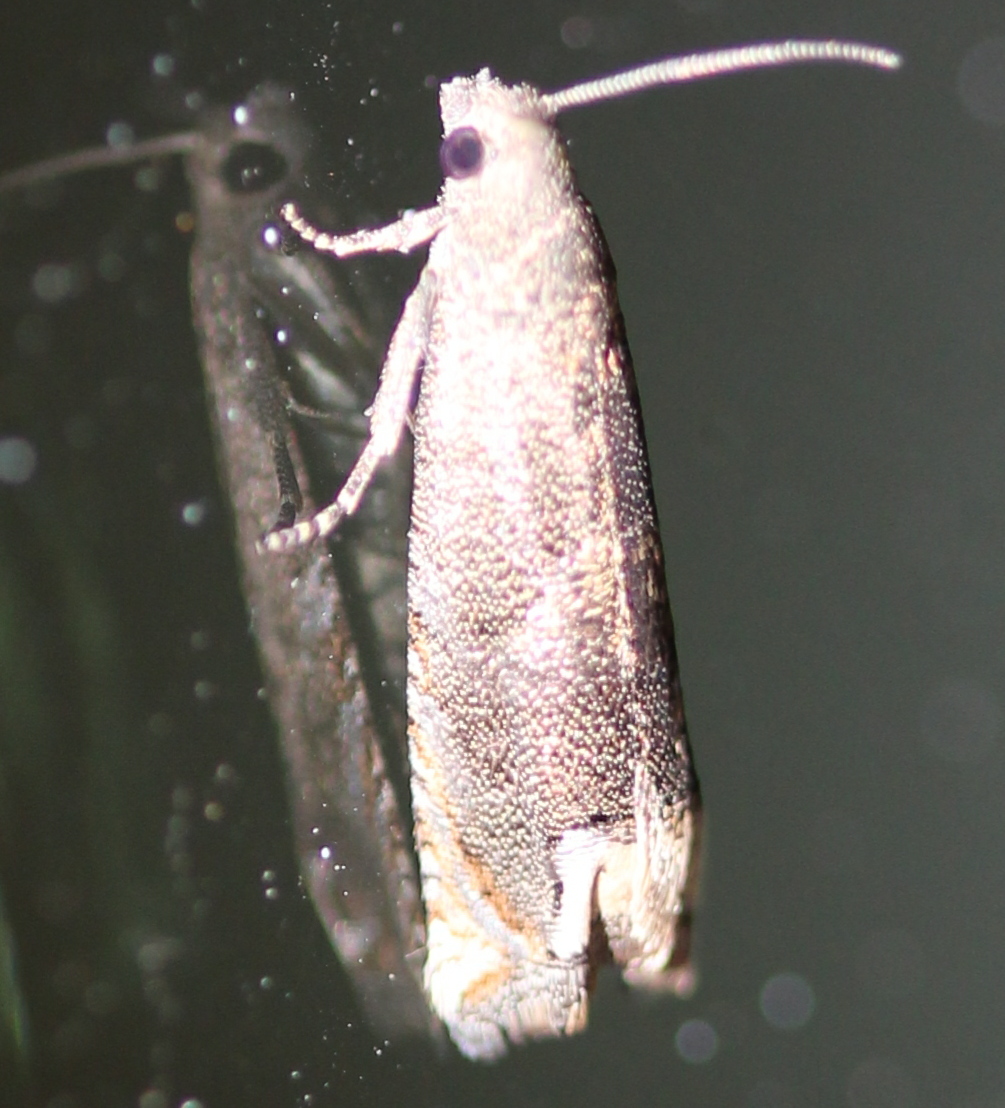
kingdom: Animalia
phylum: Arthropoda
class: Insecta
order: Lepidoptera
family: Tortricidae
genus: Epiblema
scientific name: Epiblema strenuana
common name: Ragweed borer moth
